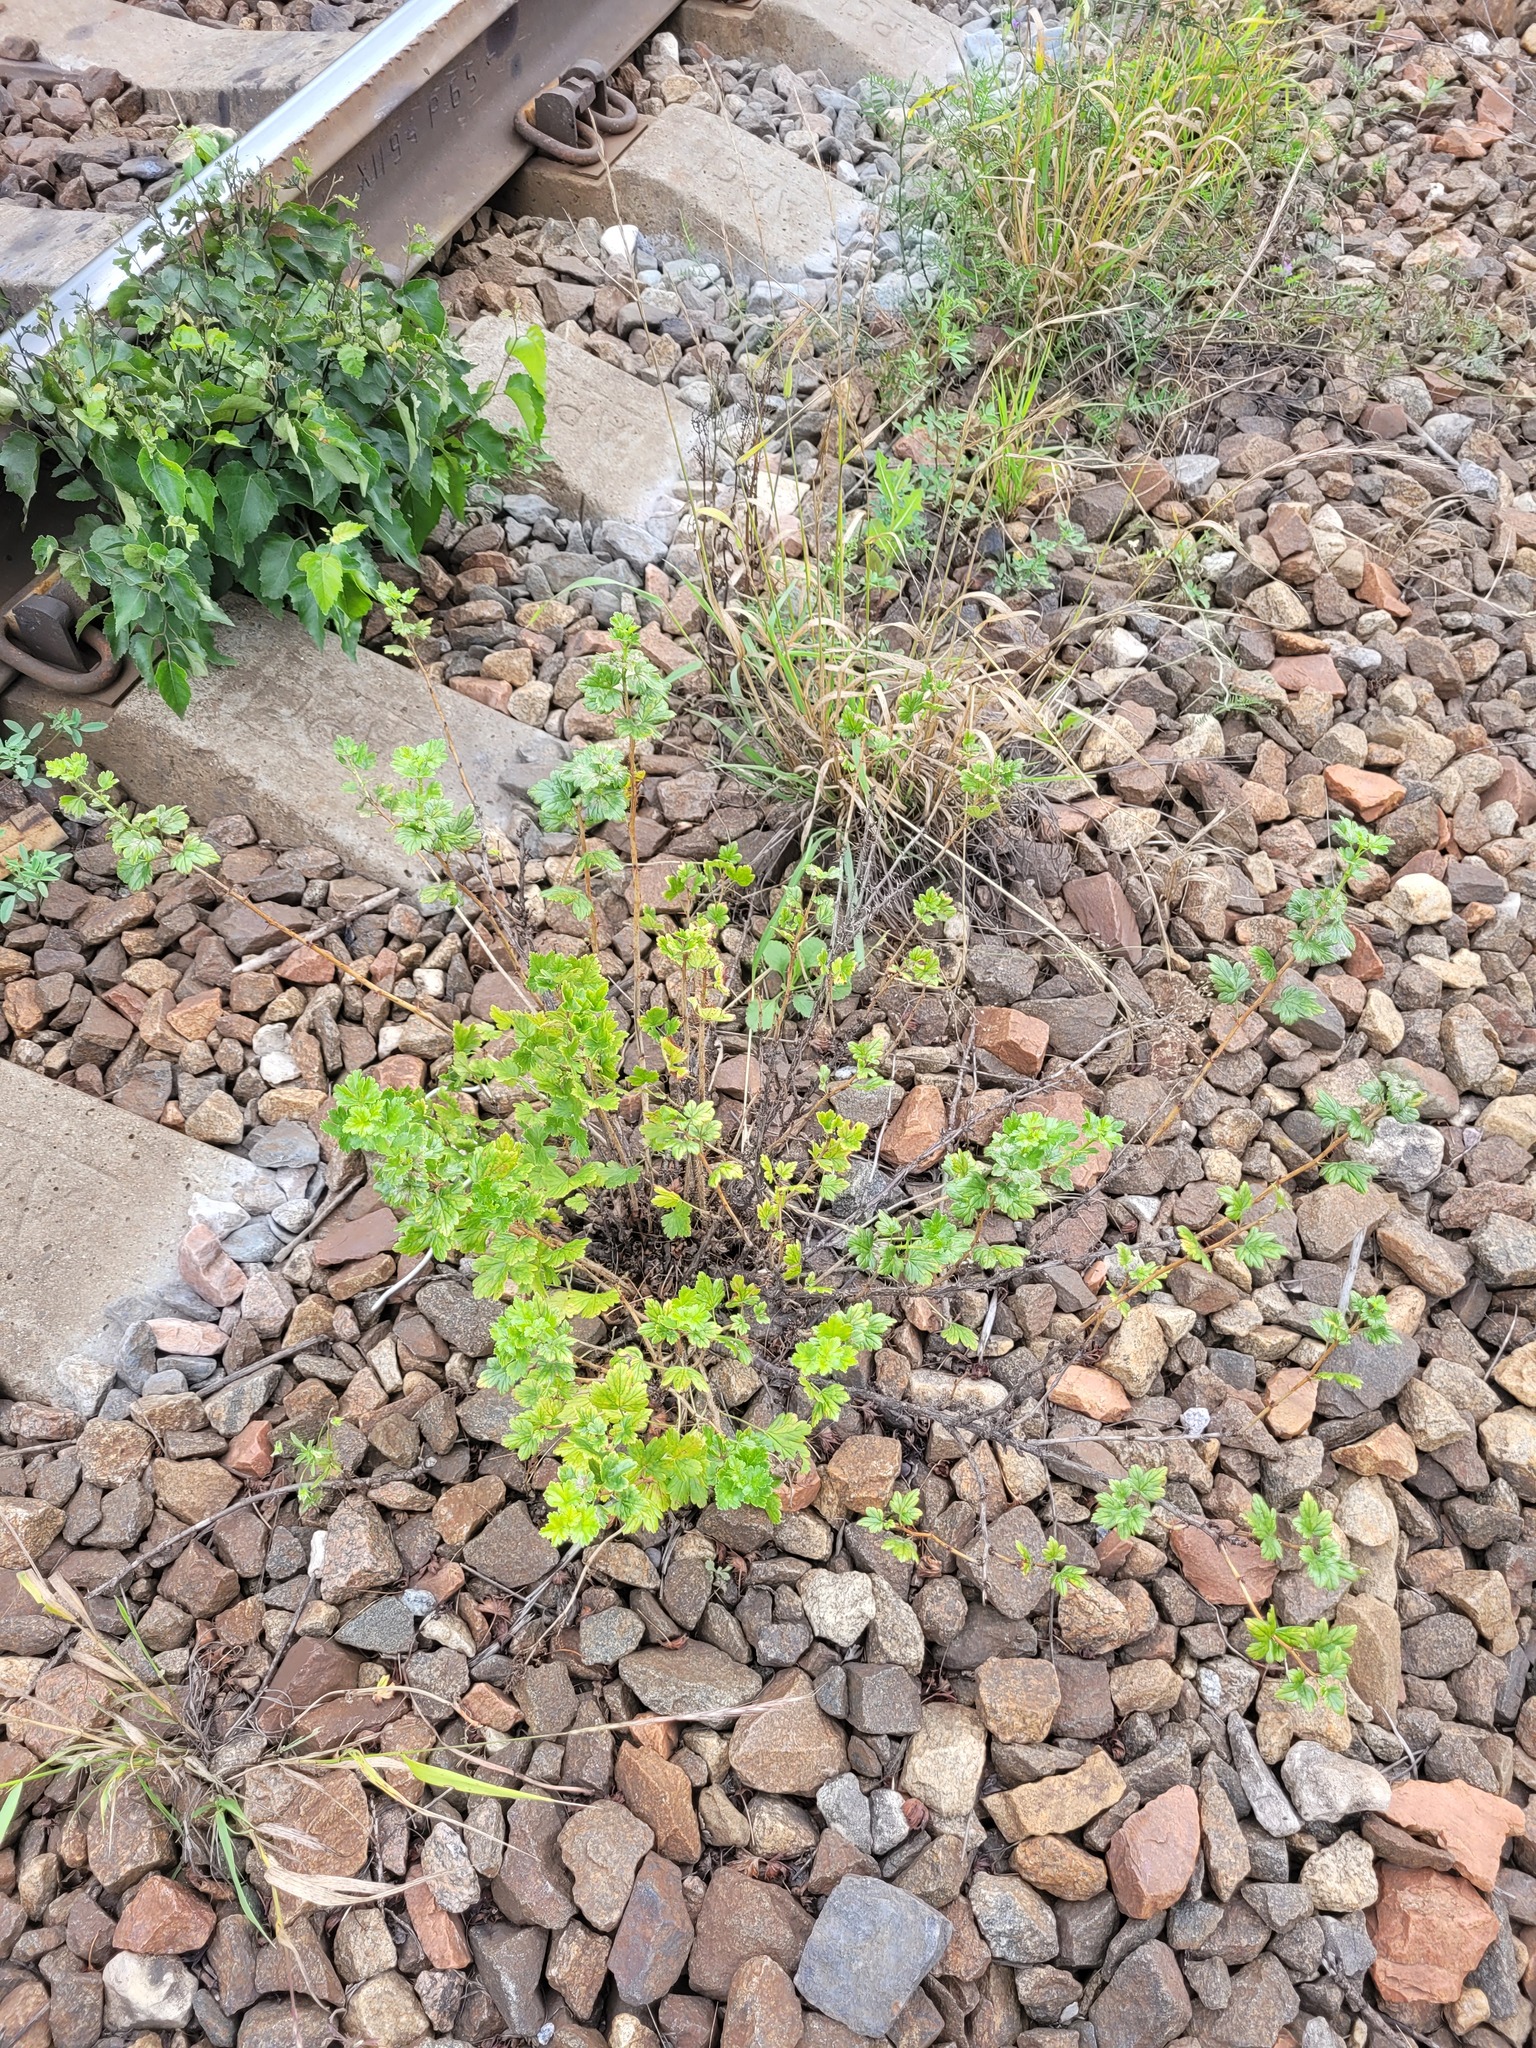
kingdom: Plantae
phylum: Tracheophyta
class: Magnoliopsida
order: Saxifragales
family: Grossulariaceae
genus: Ribes
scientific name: Ribes uva-crispa
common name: Gooseberry
